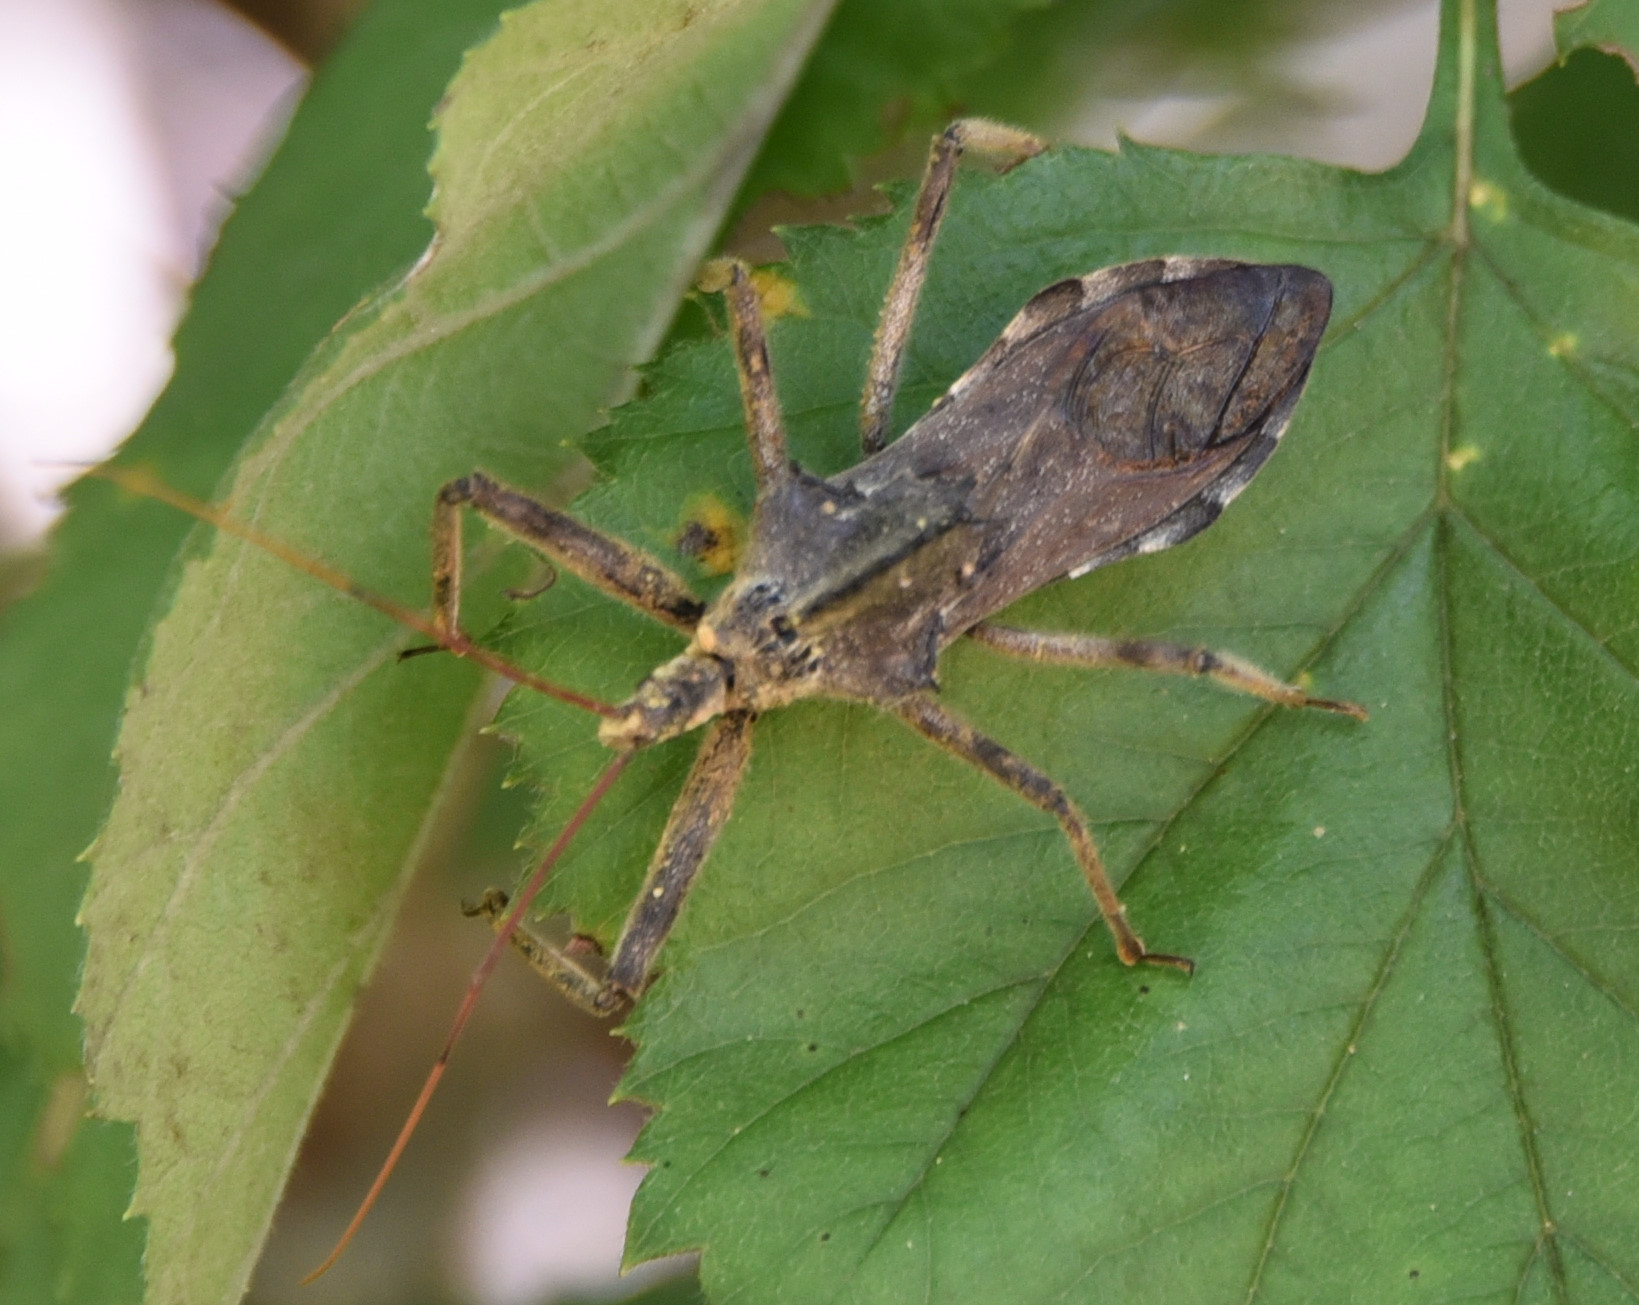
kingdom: Animalia
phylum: Arthropoda
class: Insecta
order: Hemiptera
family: Reduviidae
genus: Arilus
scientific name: Arilus cristatus
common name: North american wheel bug
